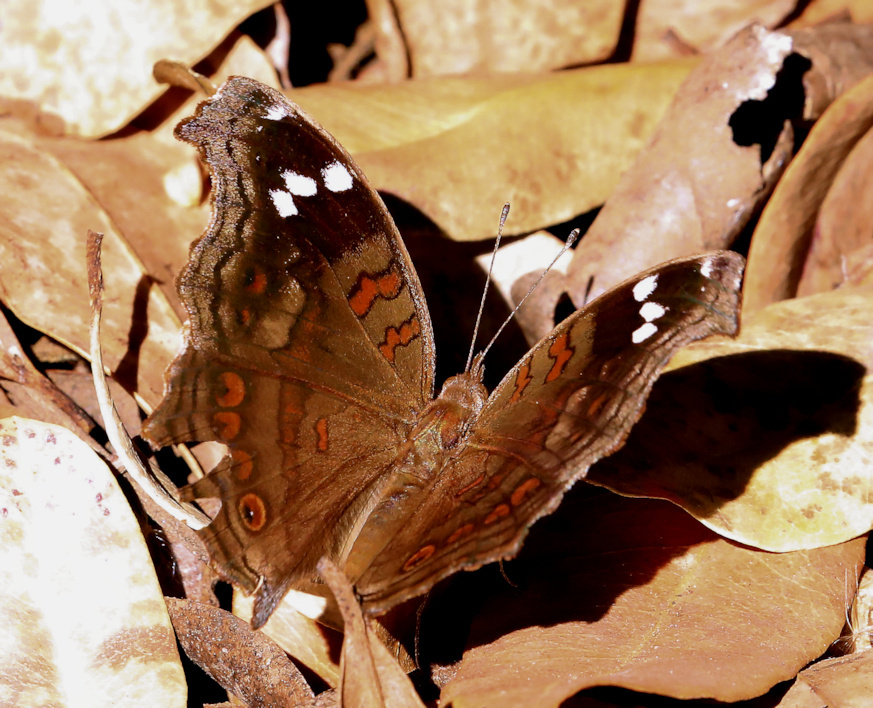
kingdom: Animalia
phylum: Arthropoda
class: Insecta
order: Lepidoptera
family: Nymphalidae
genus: Junonia
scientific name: Junonia natalica
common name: Brown pansy
